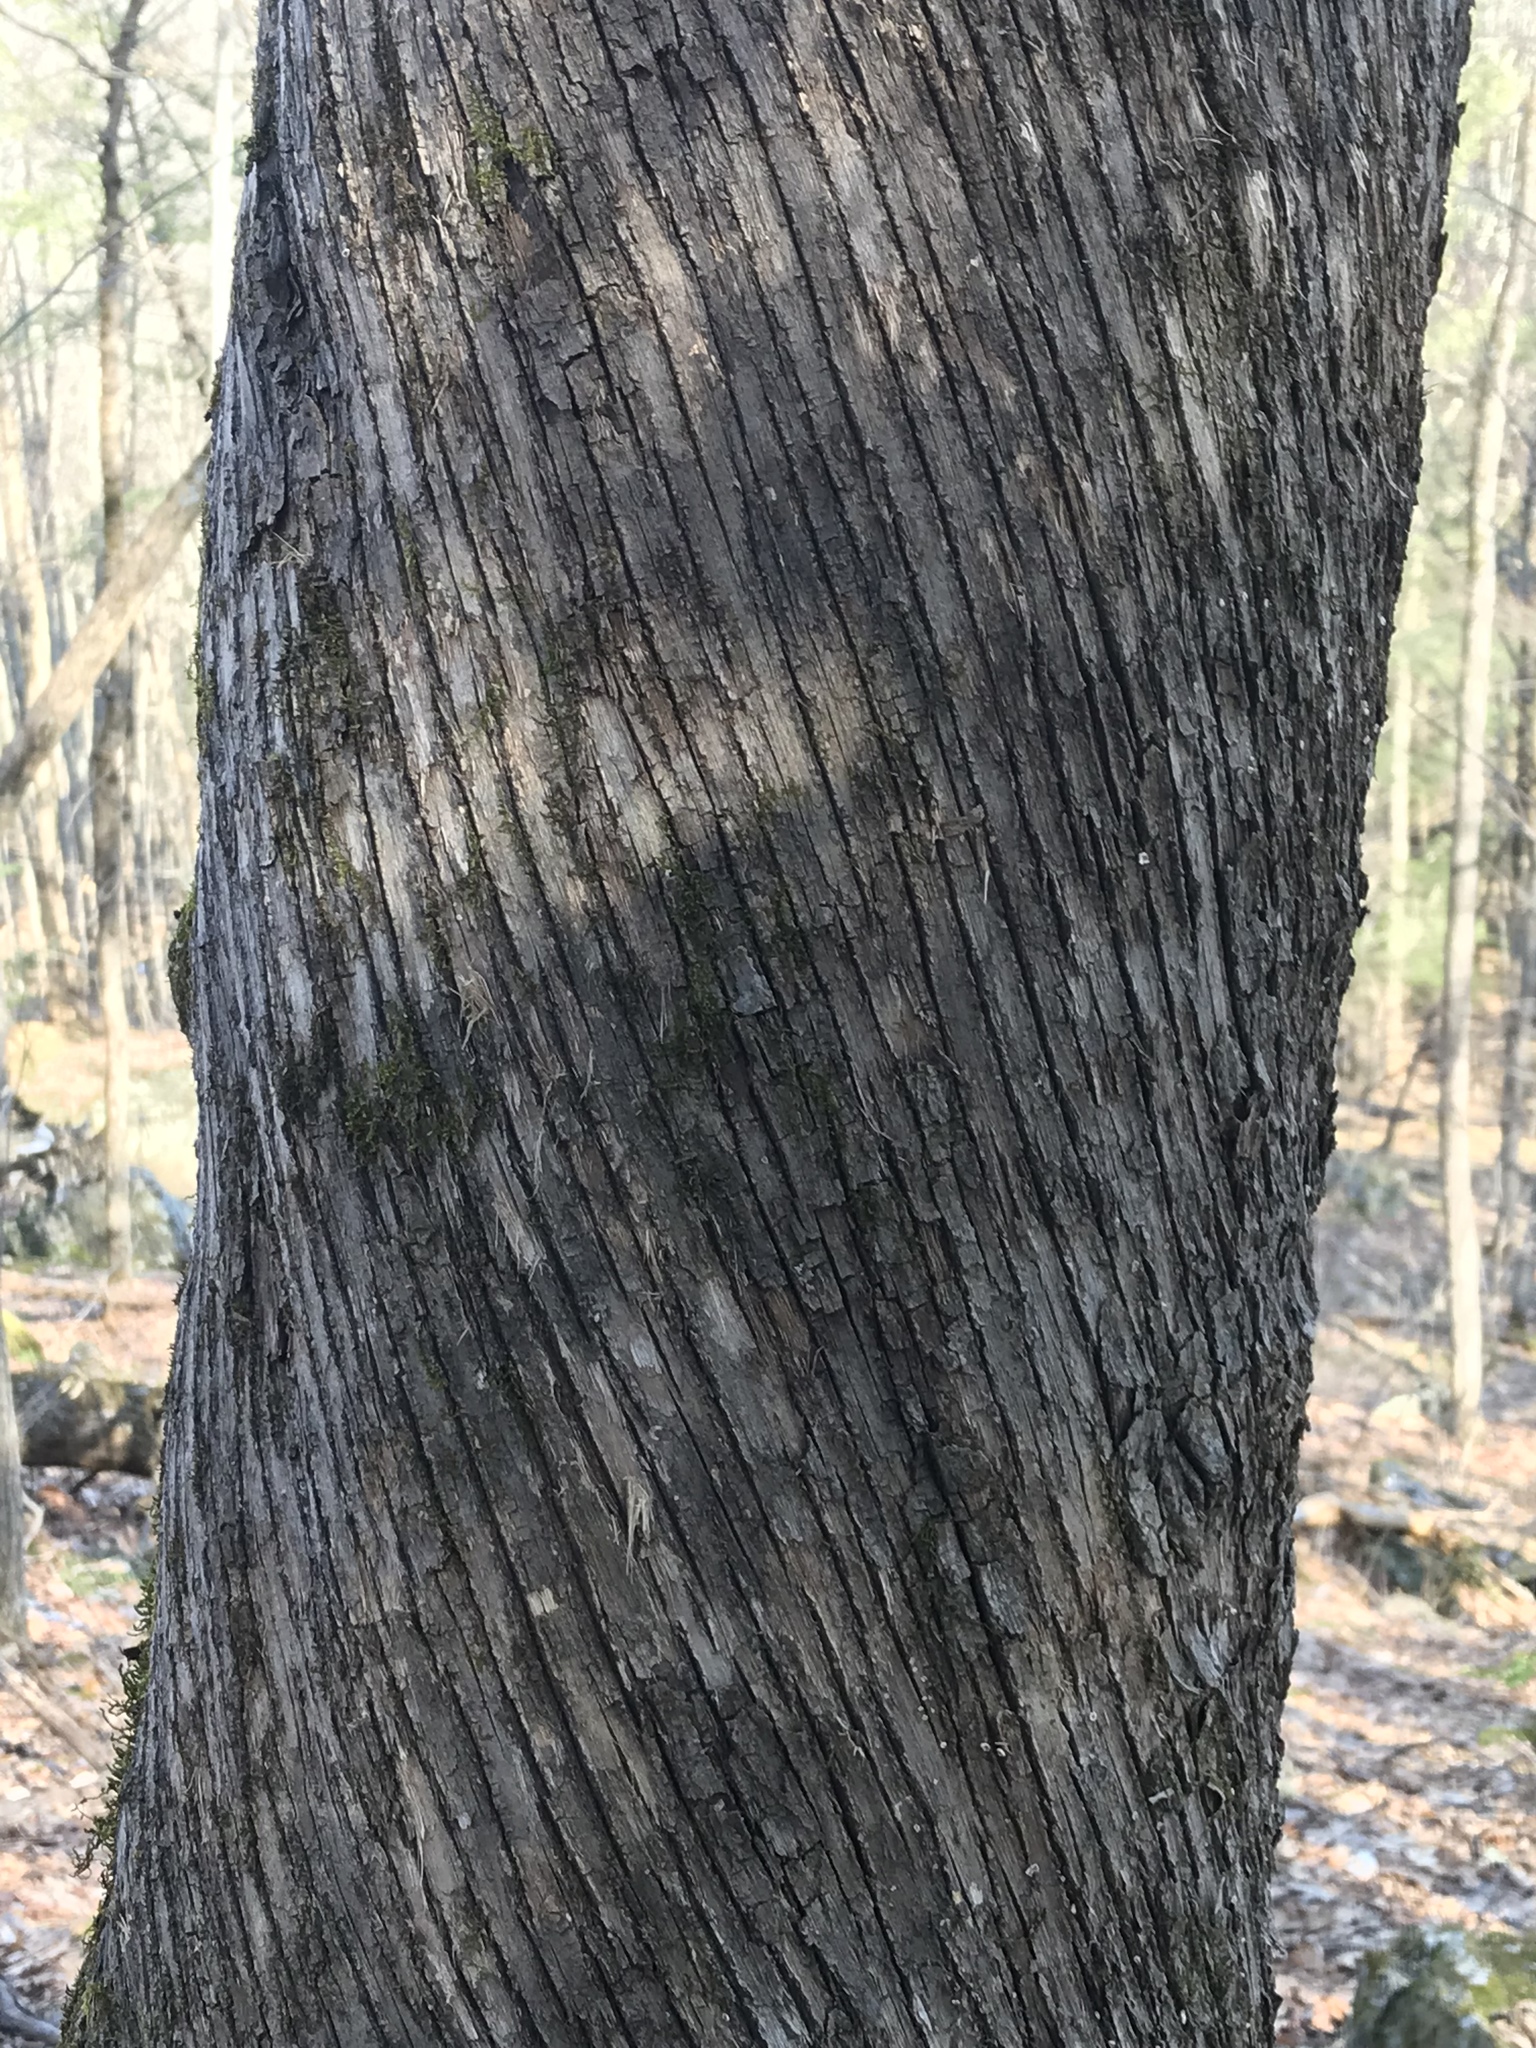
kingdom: Plantae
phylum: Tracheophyta
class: Magnoliopsida
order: Fagales
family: Betulaceae
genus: Ostrya
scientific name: Ostrya virginiana
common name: Ironwood
